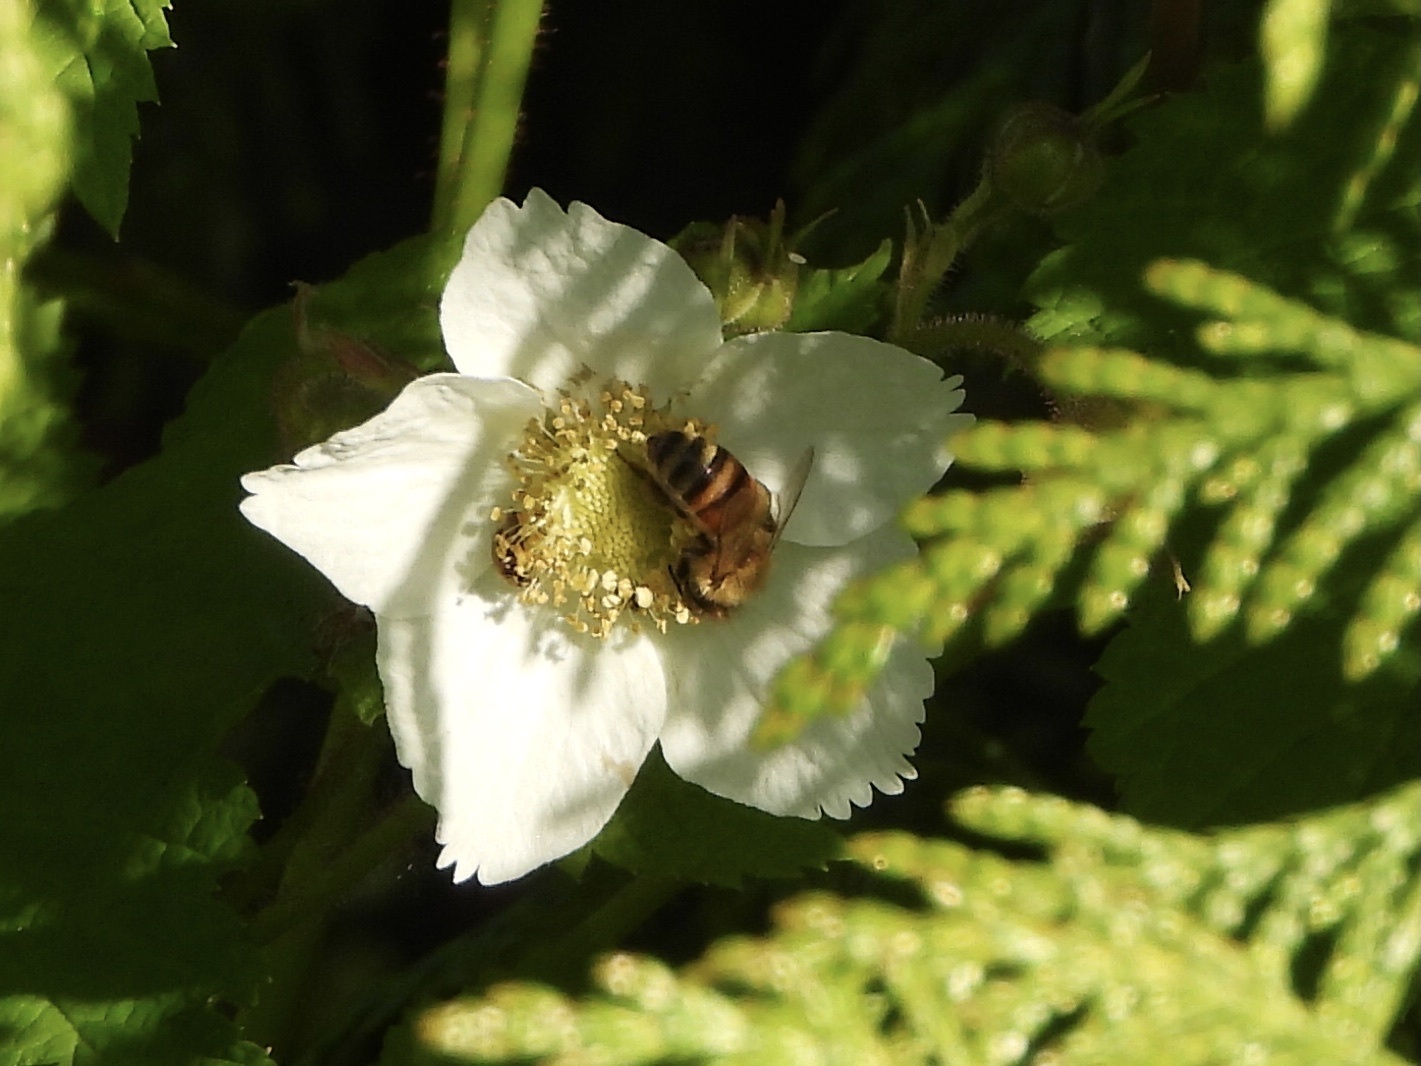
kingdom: Animalia
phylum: Arthropoda
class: Insecta
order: Hymenoptera
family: Apidae
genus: Apis
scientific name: Apis mellifera
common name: Honey bee
